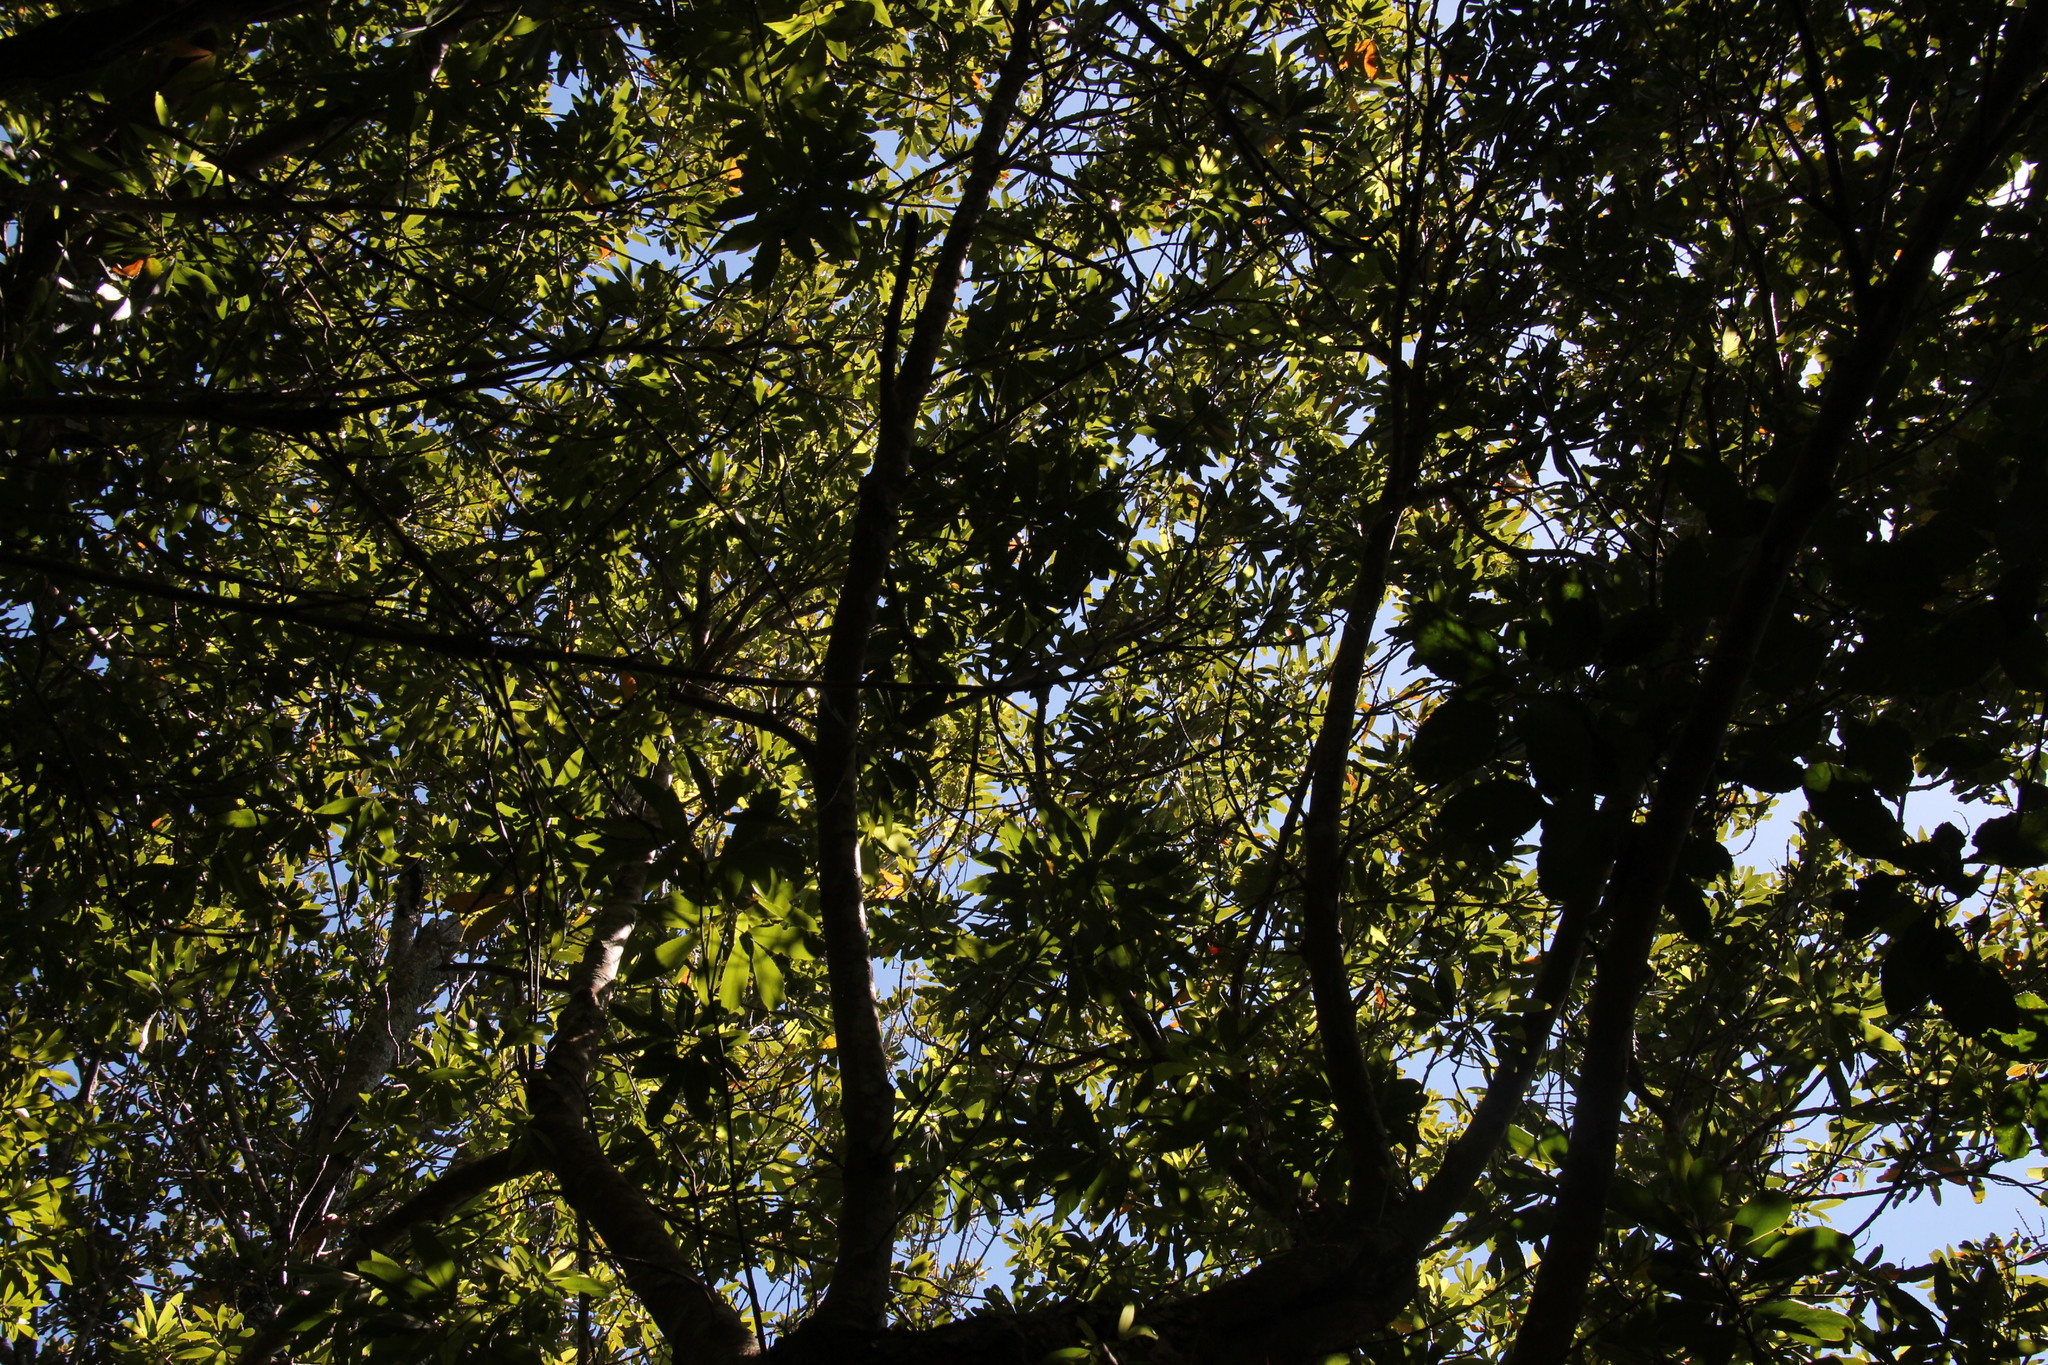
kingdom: Plantae
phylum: Tracheophyta
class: Magnoliopsida
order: Oxalidales
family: Cunoniaceae
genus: Platylophus
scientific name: Platylophus trifoliatus
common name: White alder
